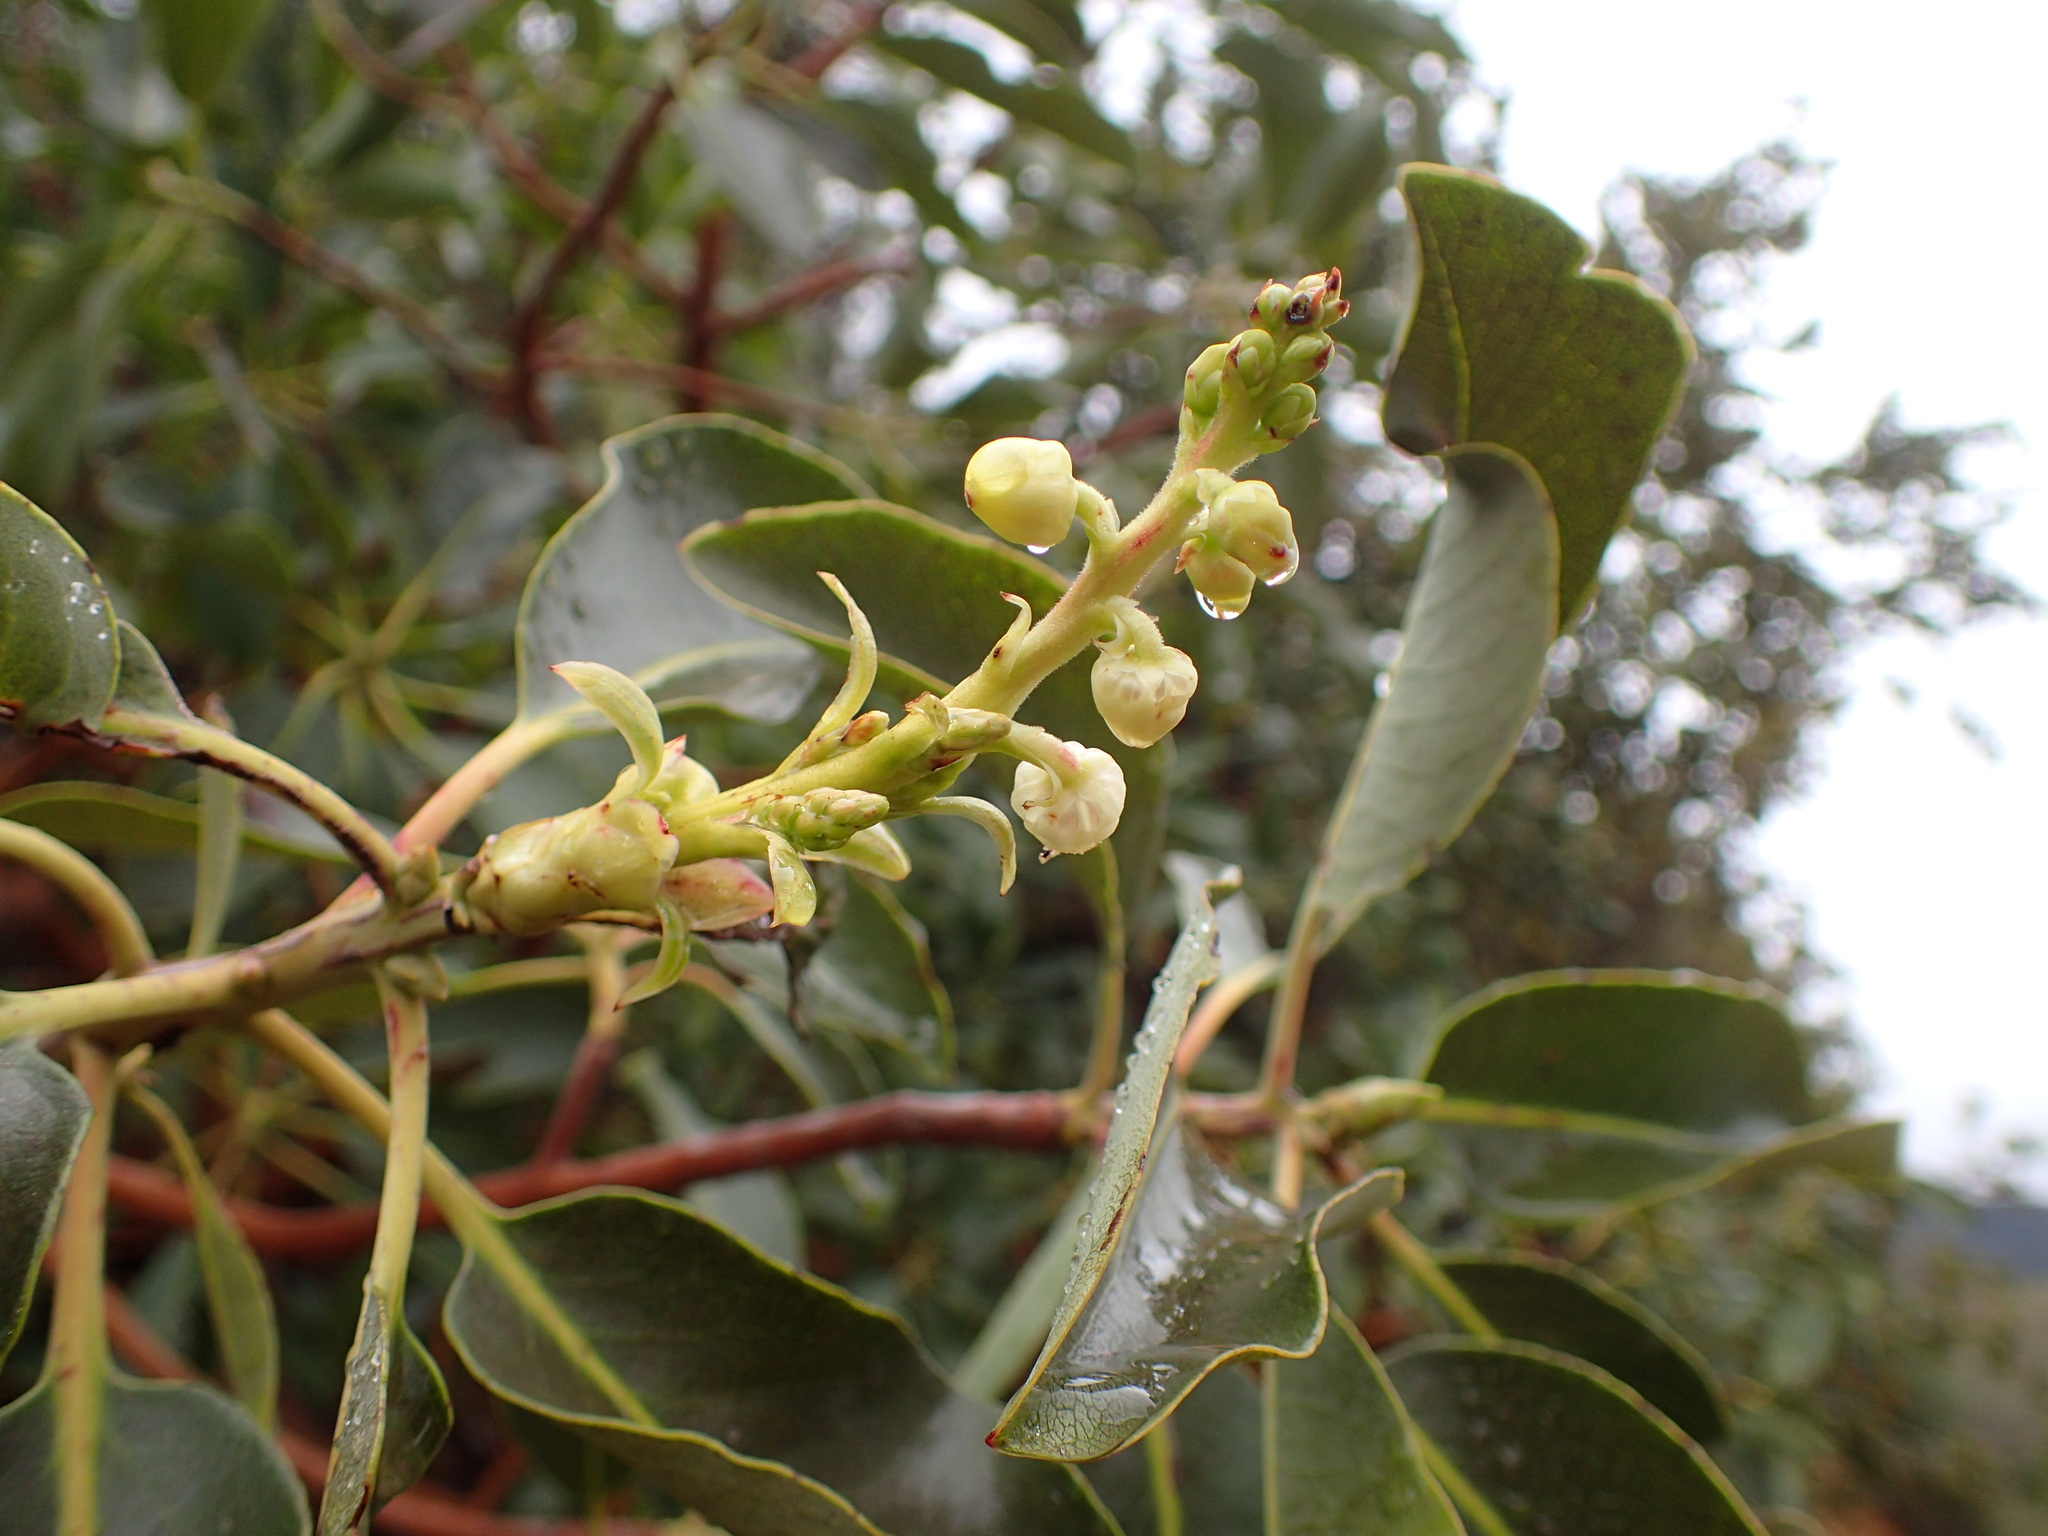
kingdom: Plantae
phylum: Tracheophyta
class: Magnoliopsida
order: Ericales
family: Ericaceae
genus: Arbutus
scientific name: Arbutus menziesii
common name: Pacific madrone
